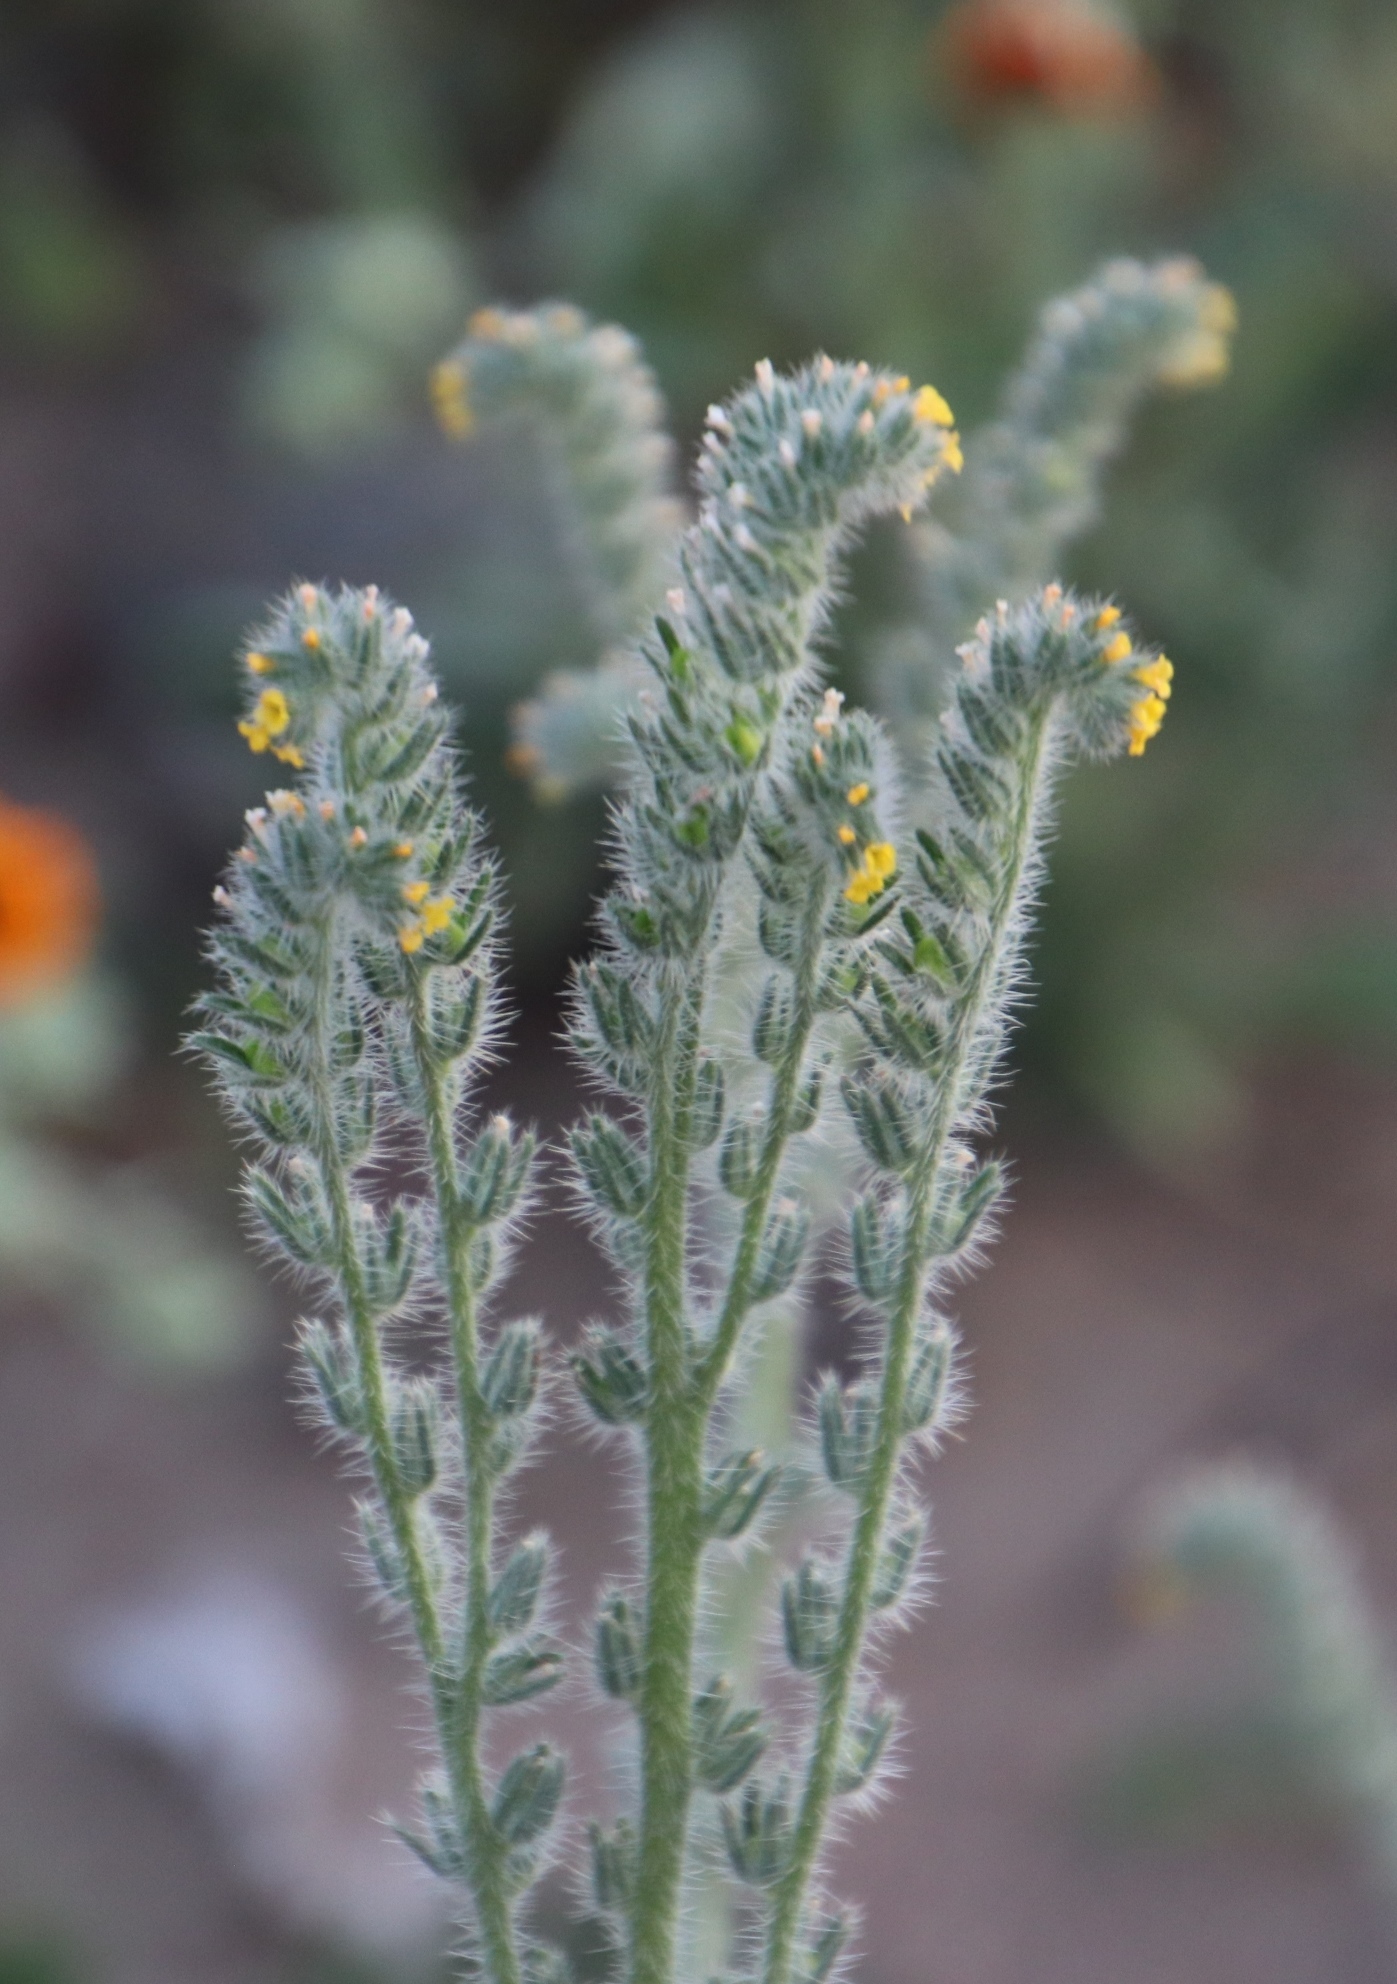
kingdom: Plantae
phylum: Tracheophyta
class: Magnoliopsida
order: Boraginales
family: Boraginaceae
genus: Amsinckia
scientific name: Amsinckia menziesii
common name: Menzies' fiddleneck
